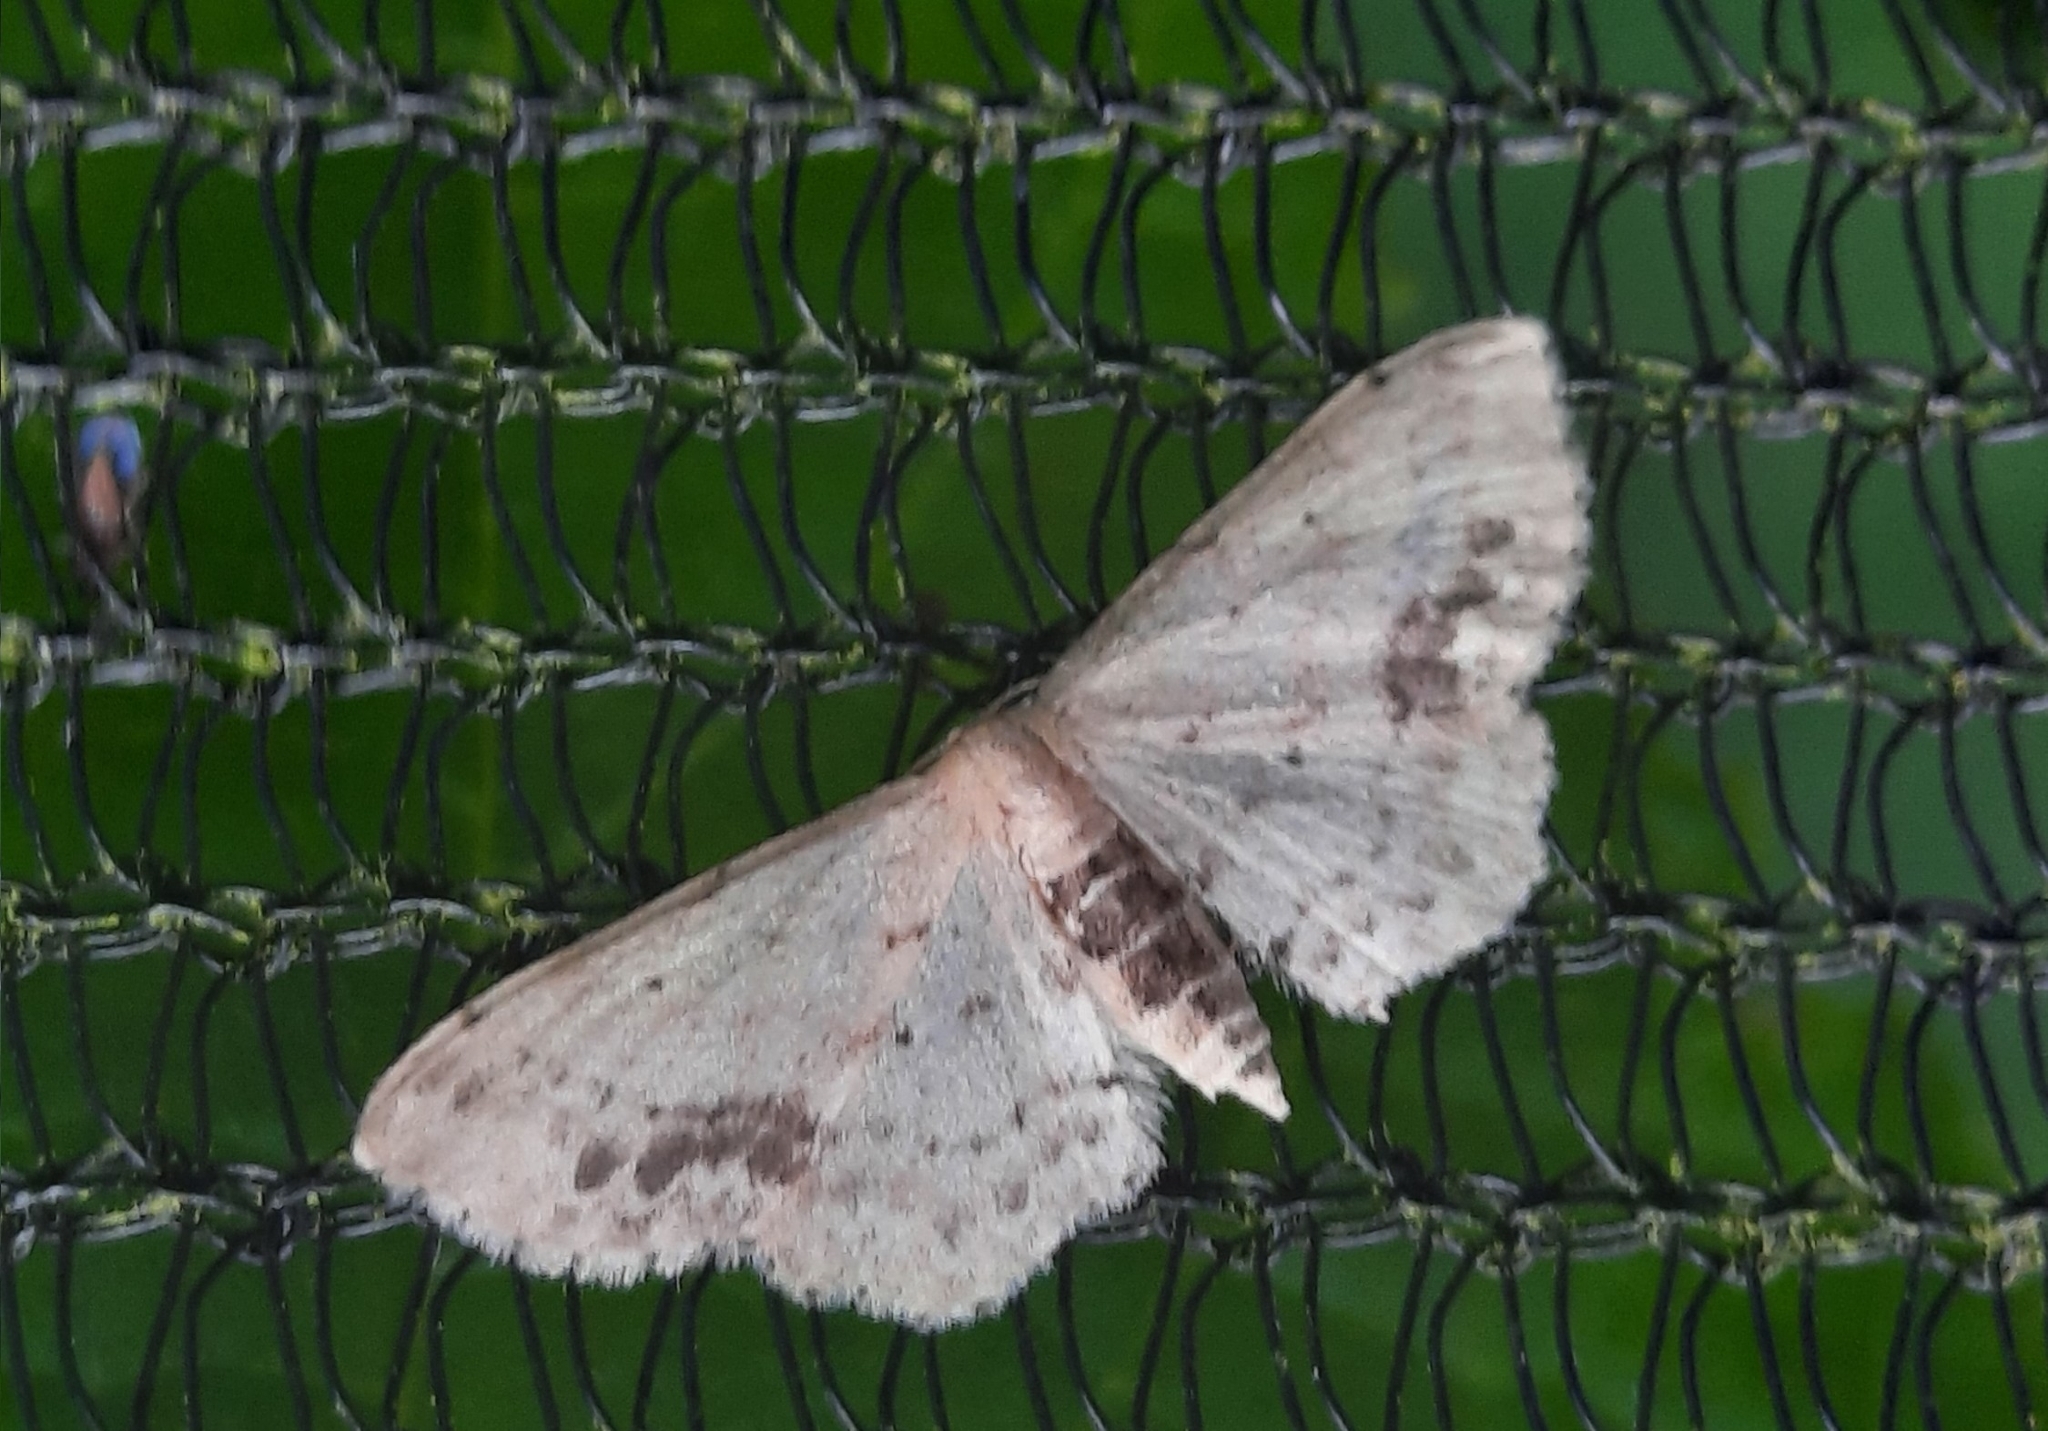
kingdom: Animalia
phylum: Arthropoda
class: Insecta
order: Lepidoptera
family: Geometridae
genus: Idaea
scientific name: Idaea dimidiata
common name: Single-dotted wave
